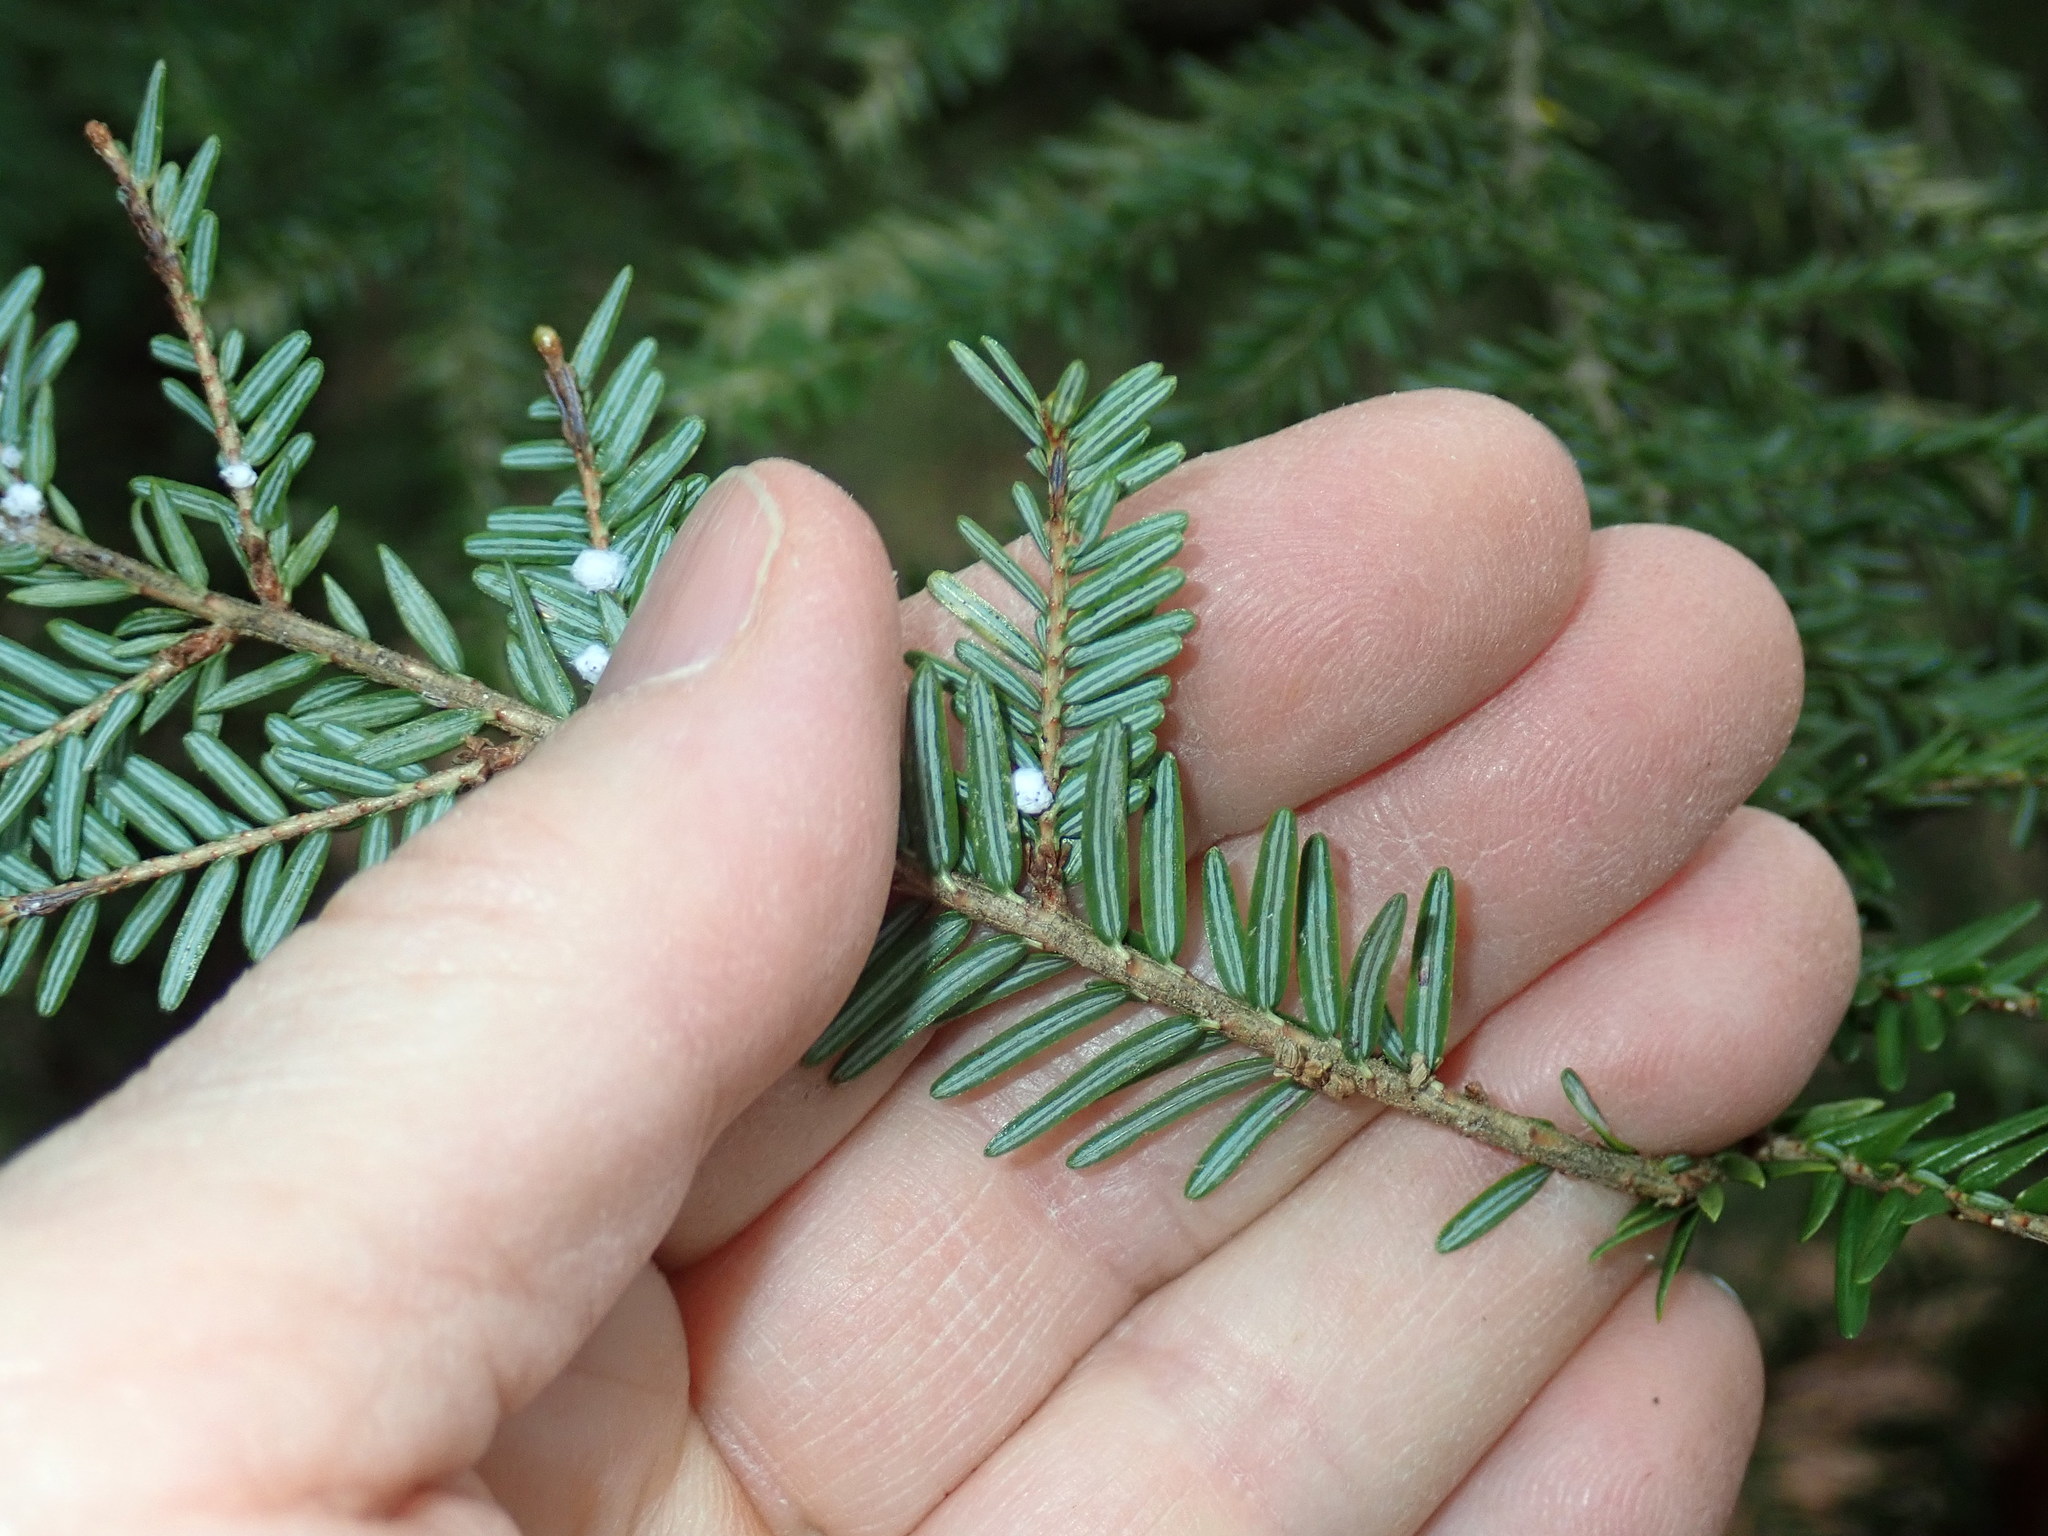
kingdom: Plantae
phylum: Tracheophyta
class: Pinopsida
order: Pinales
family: Pinaceae
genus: Tsuga
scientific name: Tsuga canadensis
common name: Eastern hemlock
